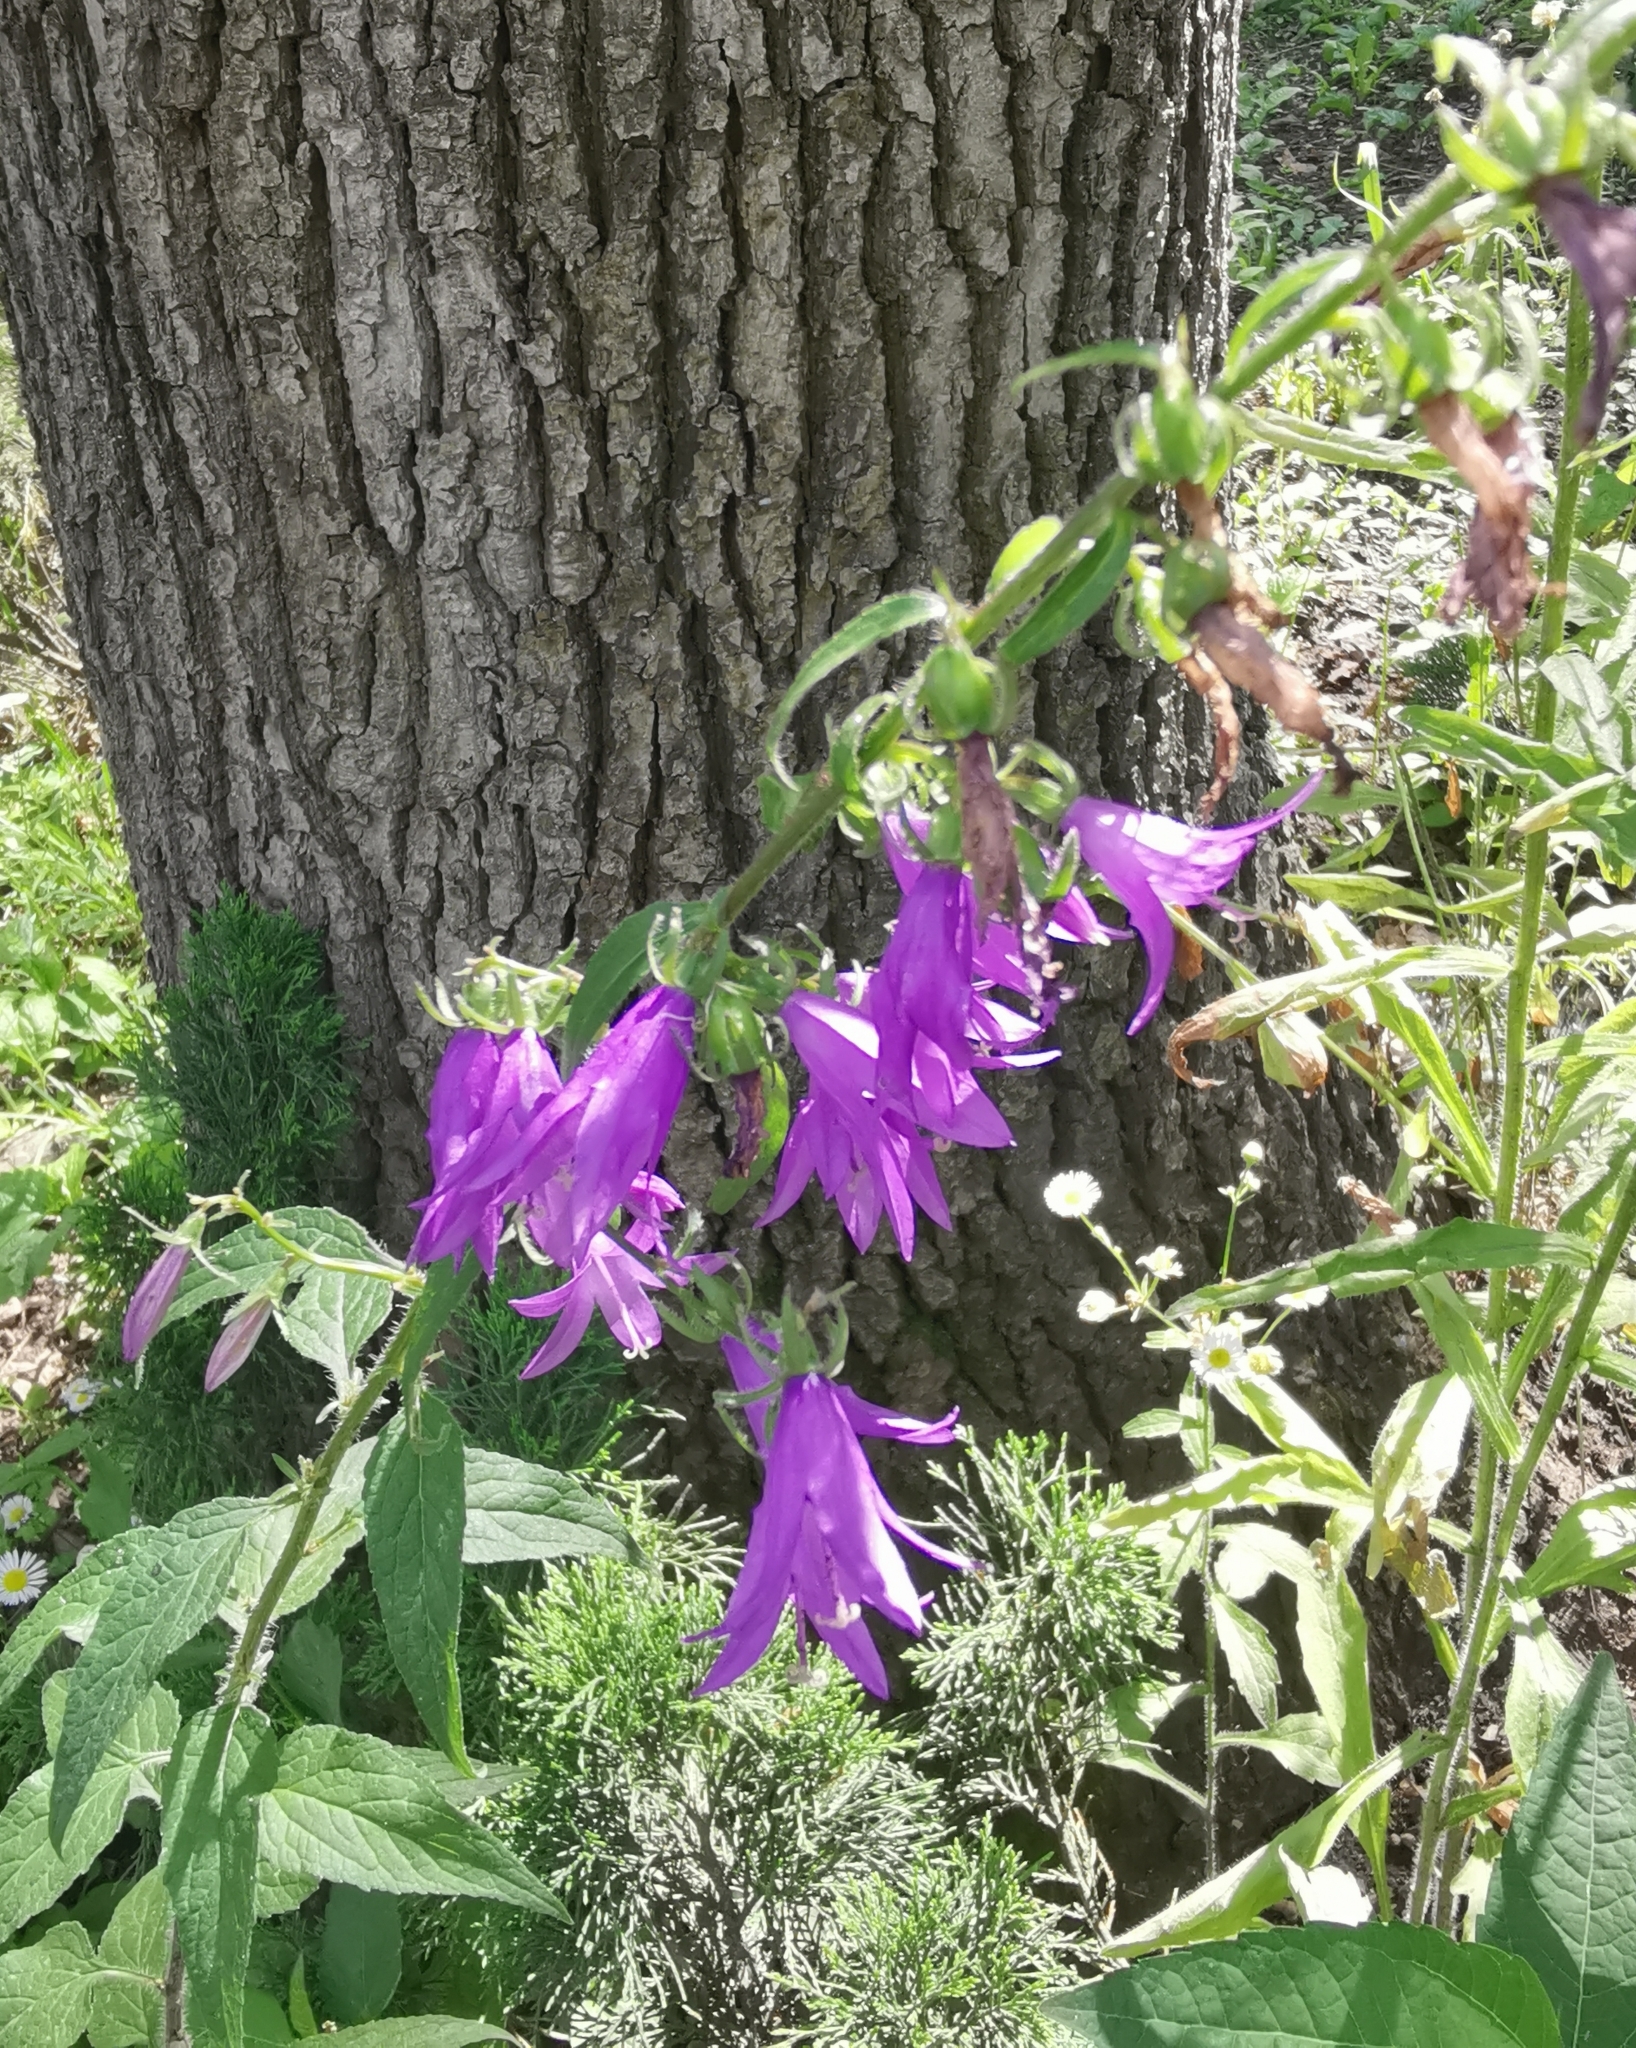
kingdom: Plantae
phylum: Tracheophyta
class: Magnoliopsida
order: Asterales
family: Campanulaceae
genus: Campanula
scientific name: Campanula rapunculoides
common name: Creeping bellflower
